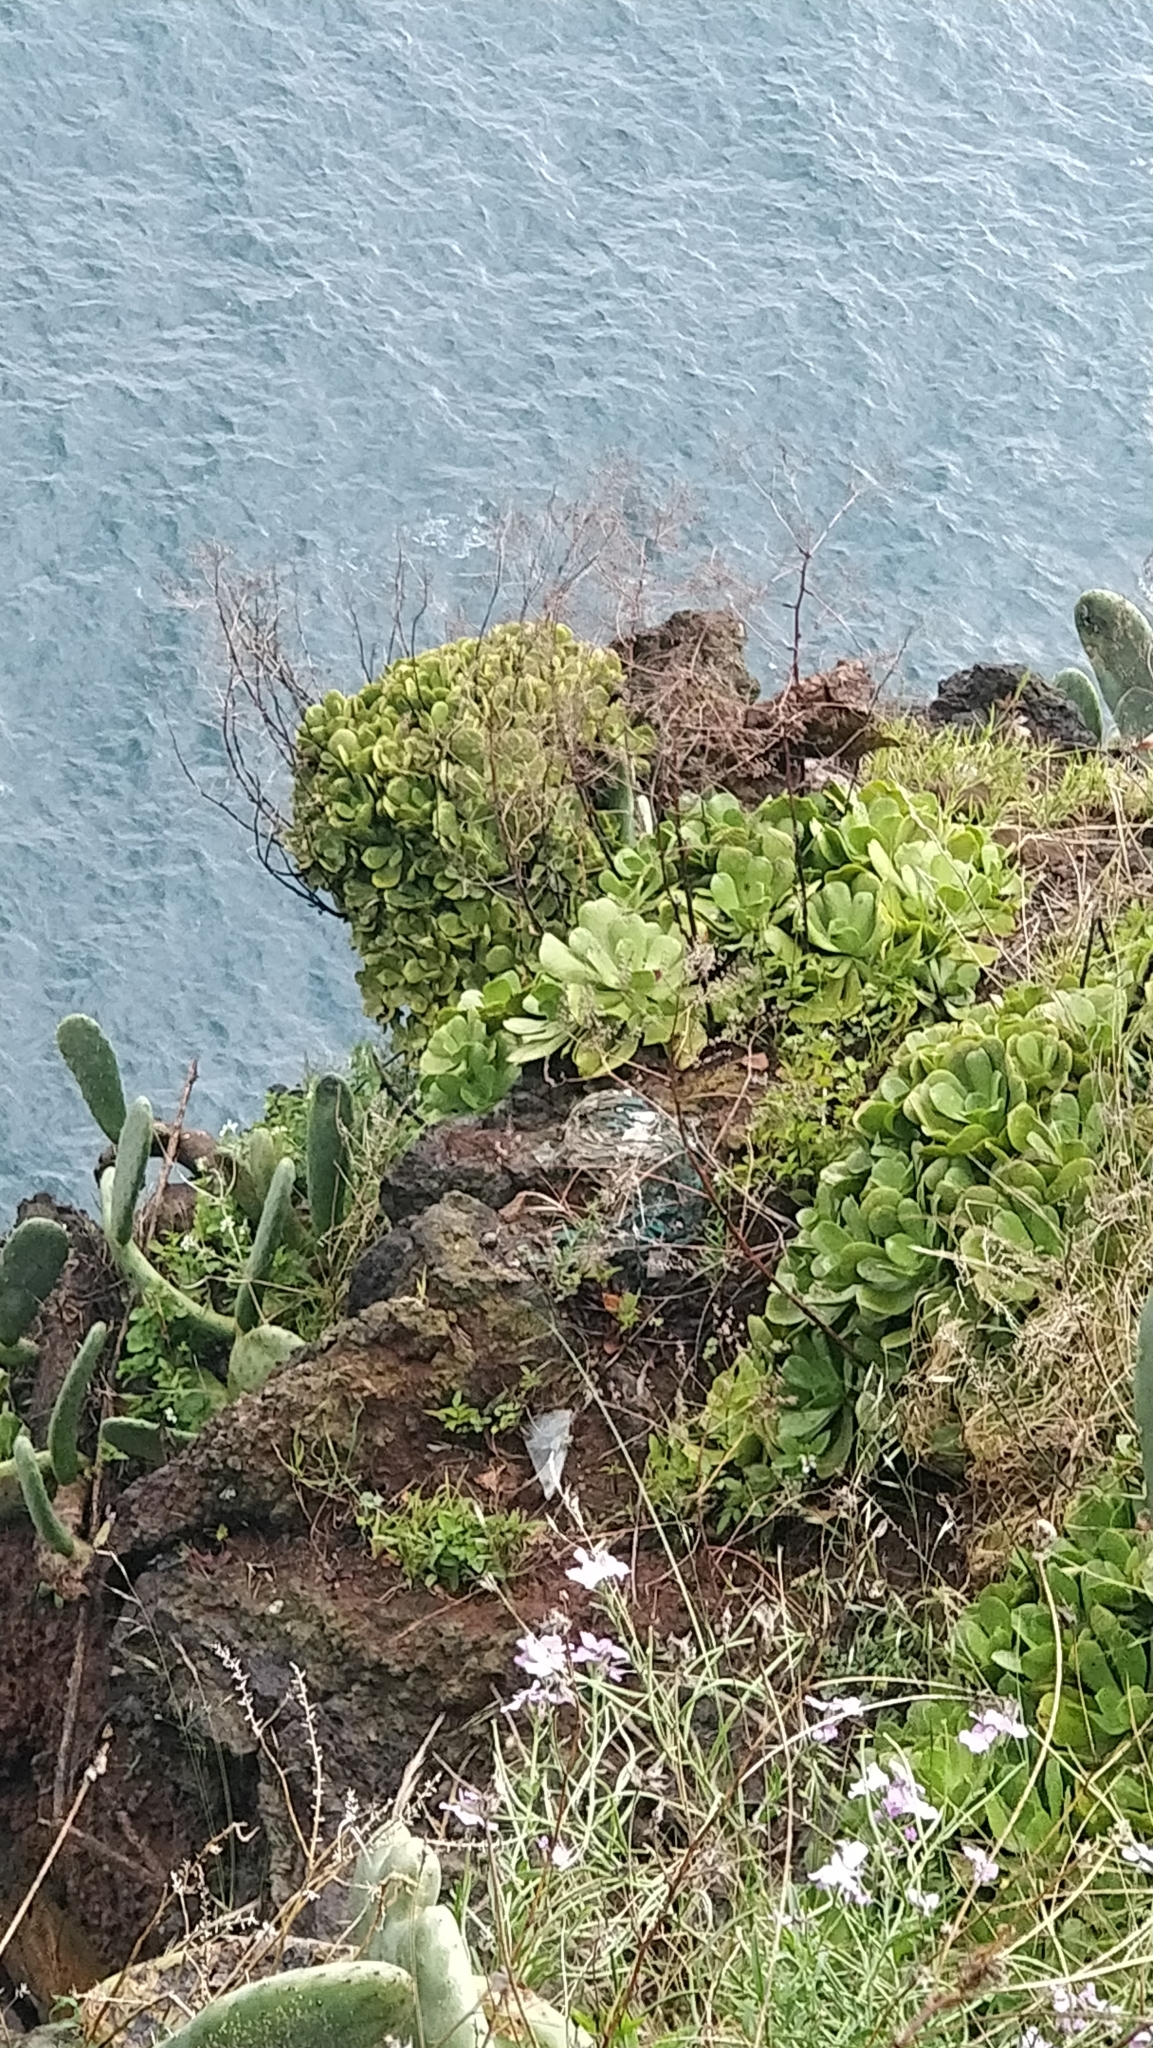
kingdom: Plantae
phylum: Tracheophyta
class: Magnoliopsida
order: Saxifragales
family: Crassulaceae
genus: Aeonium
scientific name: Aeonium glutinosum
